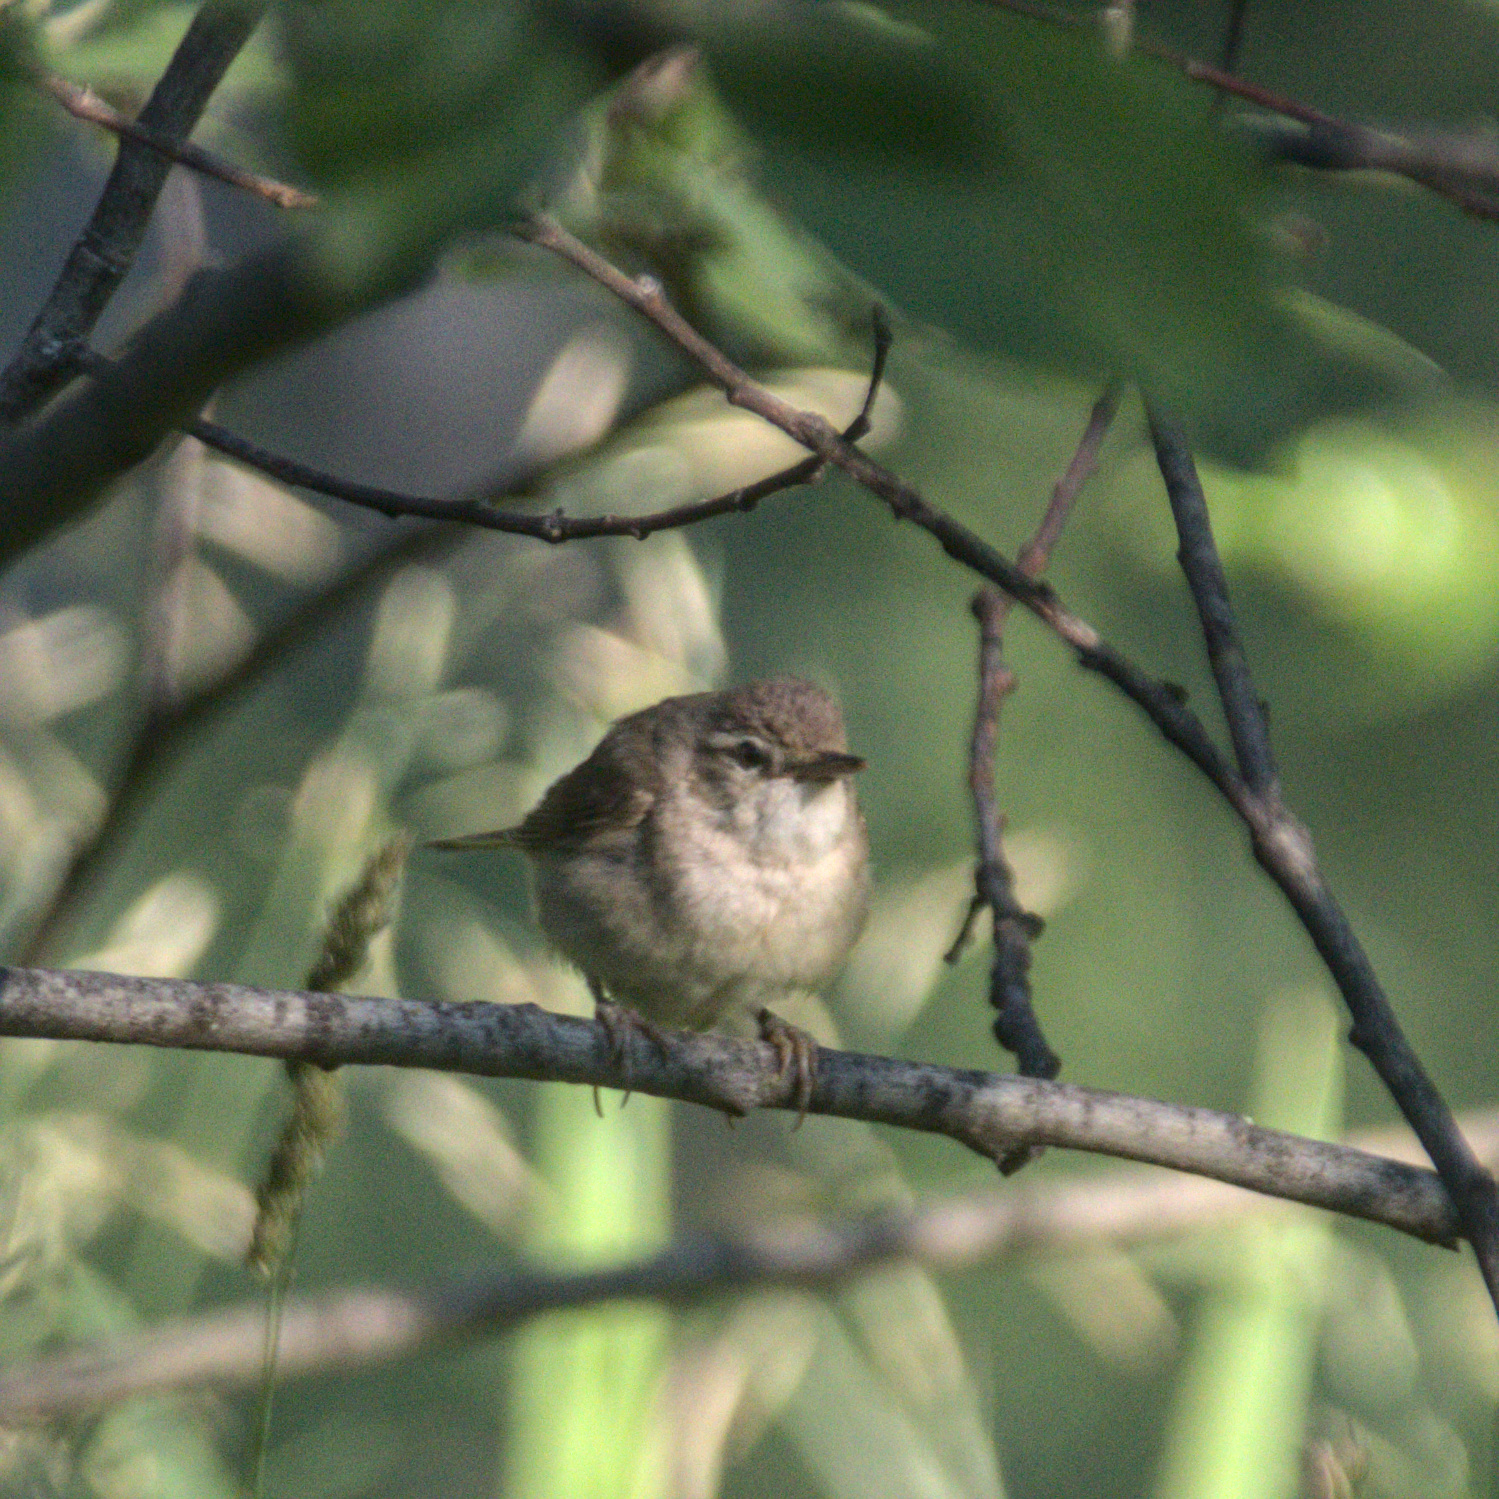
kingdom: Animalia
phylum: Chordata
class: Aves
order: Passeriformes
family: Acrocephalidae
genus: Acrocephalus
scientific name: Acrocephalus dumetorum
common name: Blyth's reed warbler
